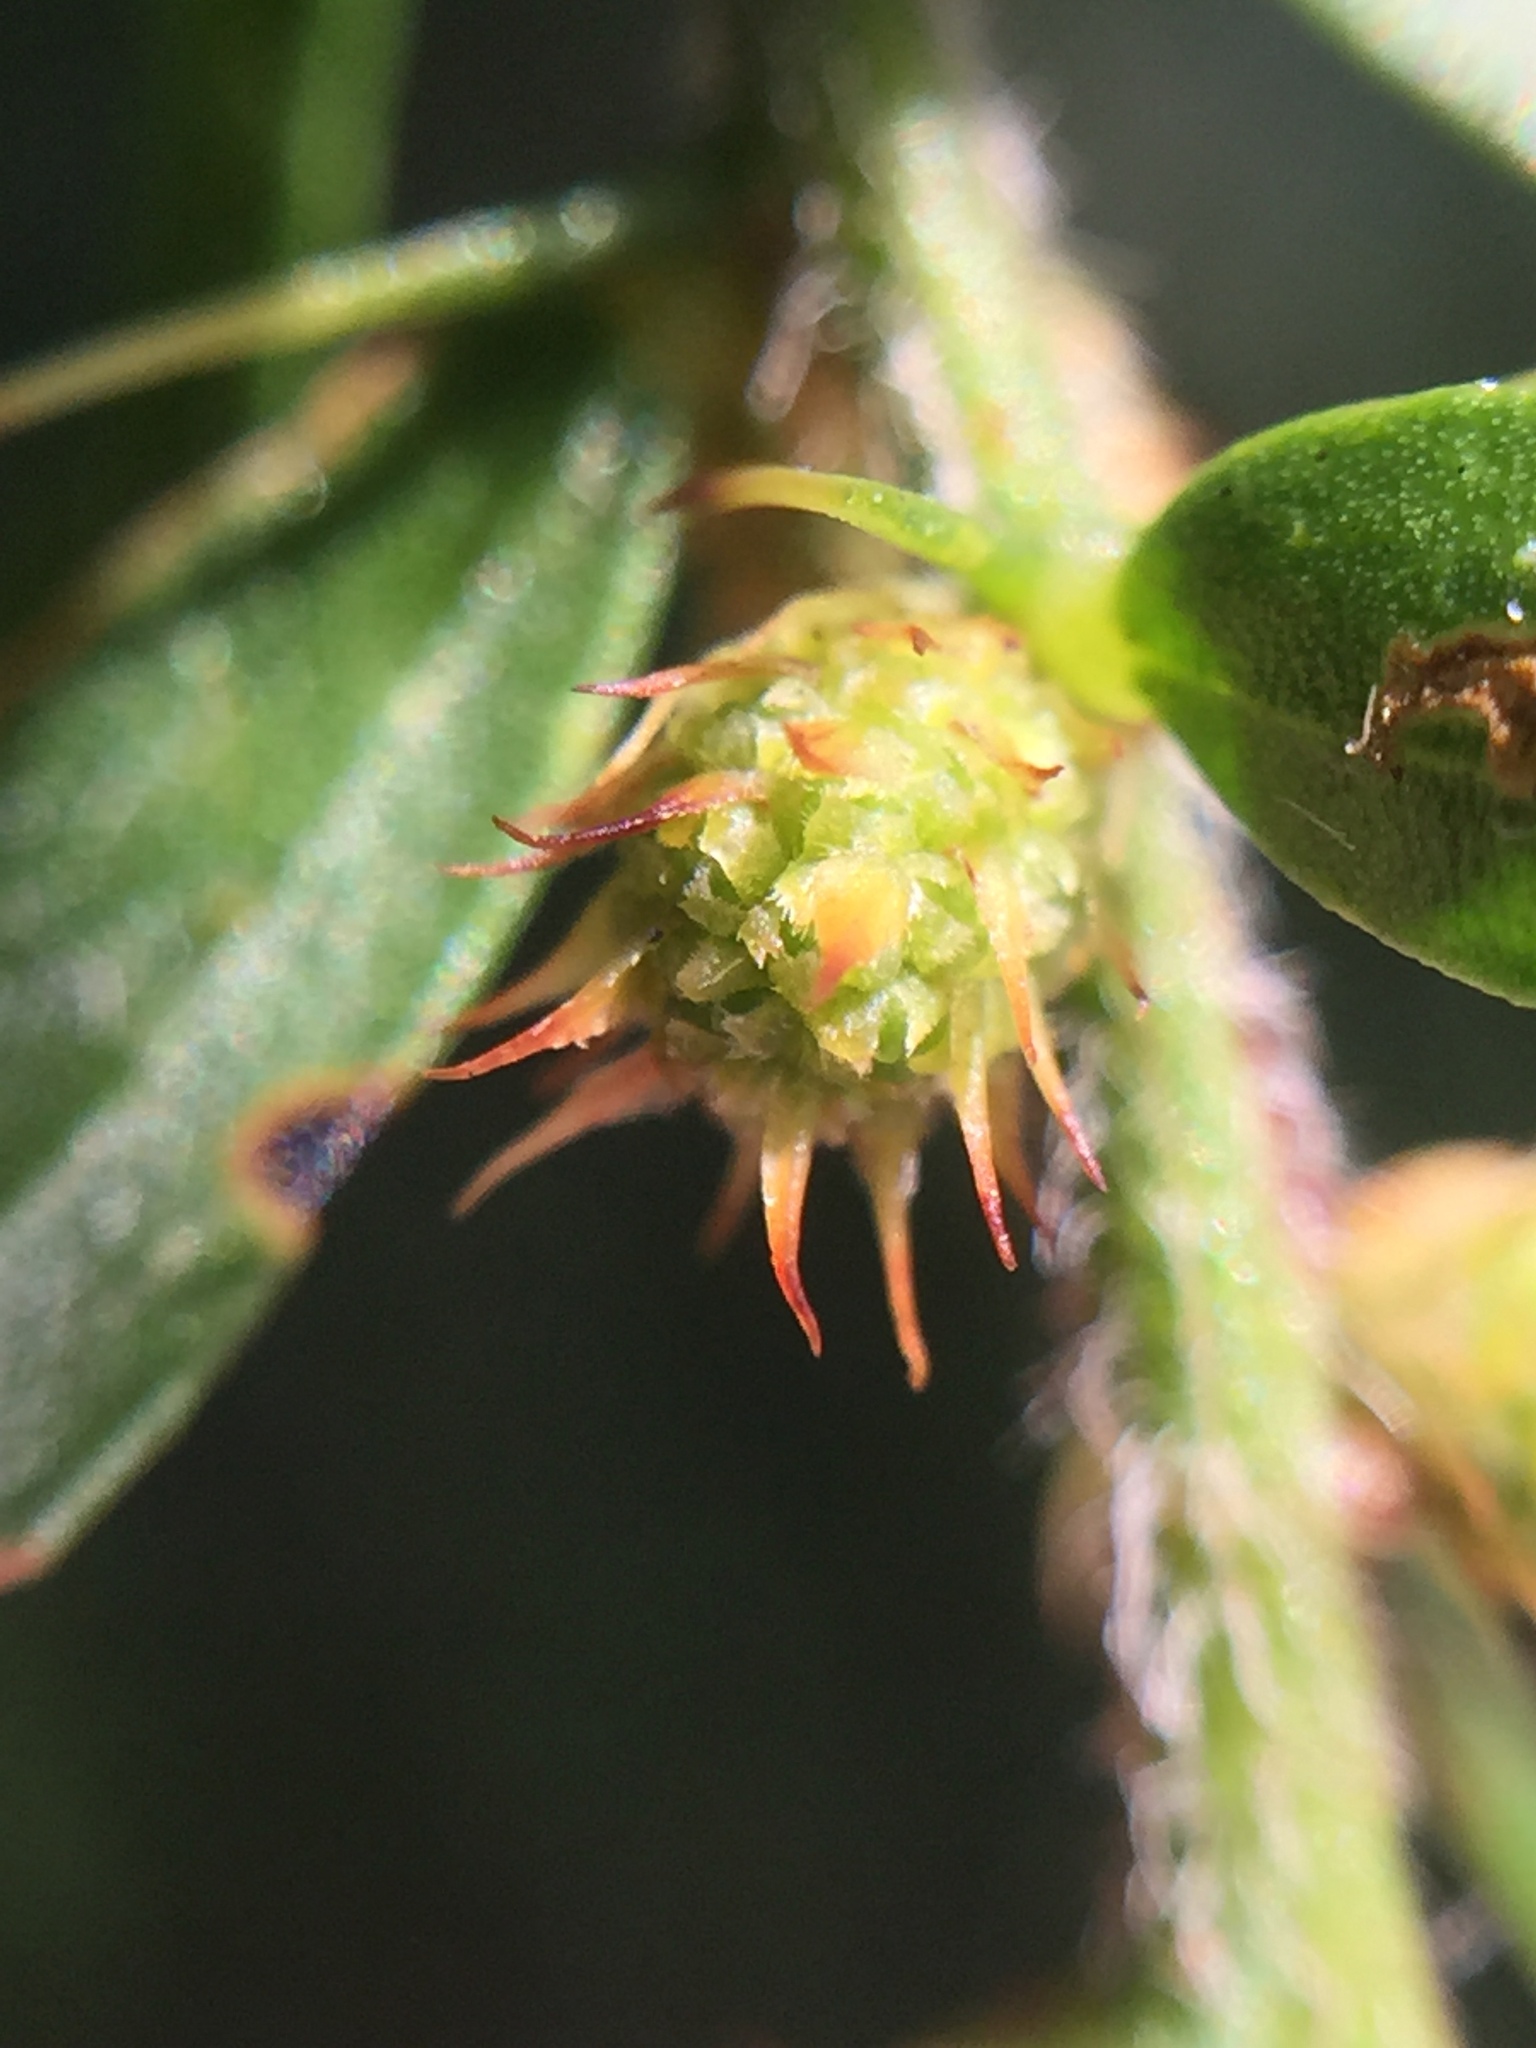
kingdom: Plantae
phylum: Tracheophyta
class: Magnoliopsida
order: Fabales
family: Fabaceae
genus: Acacia
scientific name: Acacia paradoxa
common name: Paradox acacia
